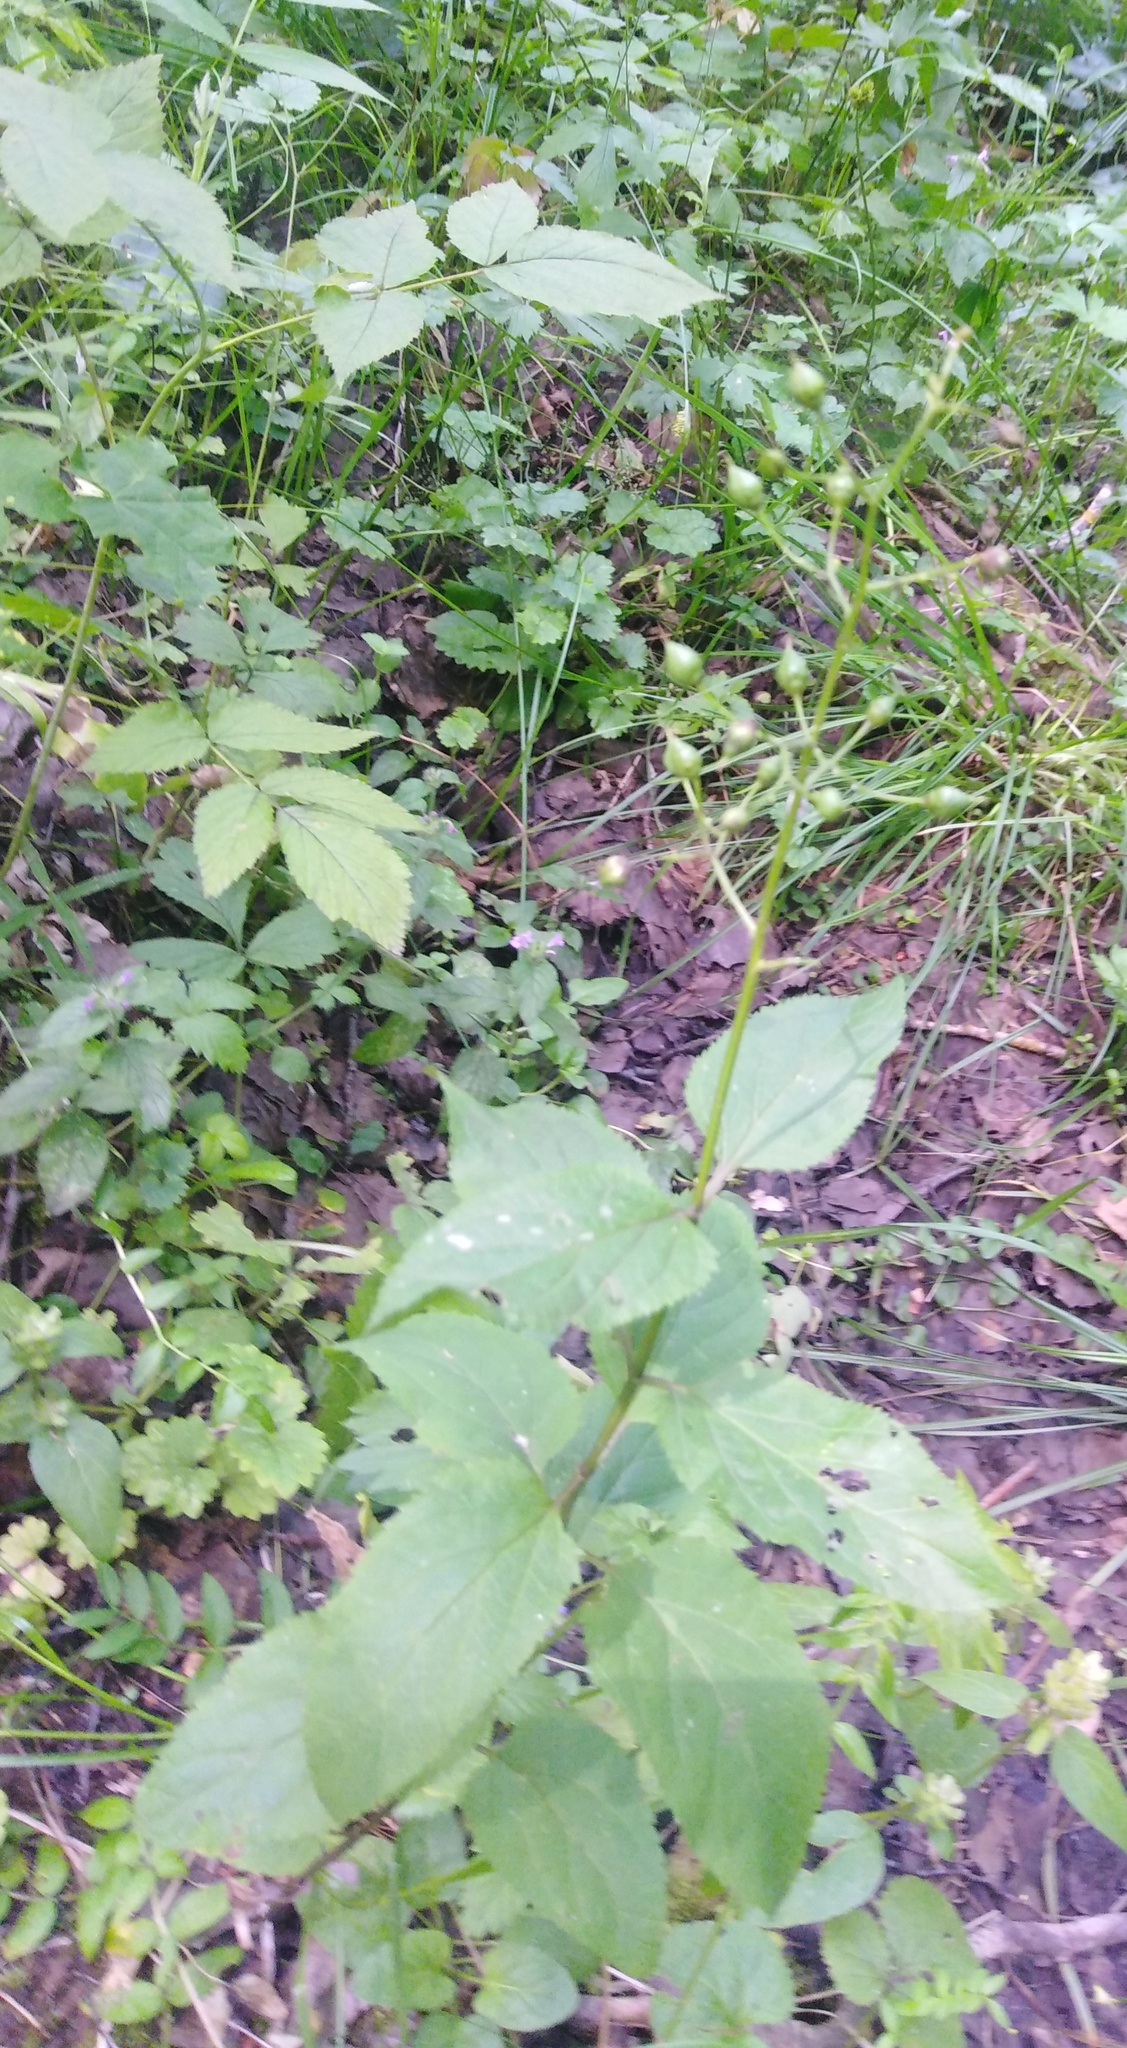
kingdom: Plantae
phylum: Tracheophyta
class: Magnoliopsida
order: Lamiales
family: Scrophulariaceae
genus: Scrophularia
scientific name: Scrophularia nodosa
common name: Common figwort
